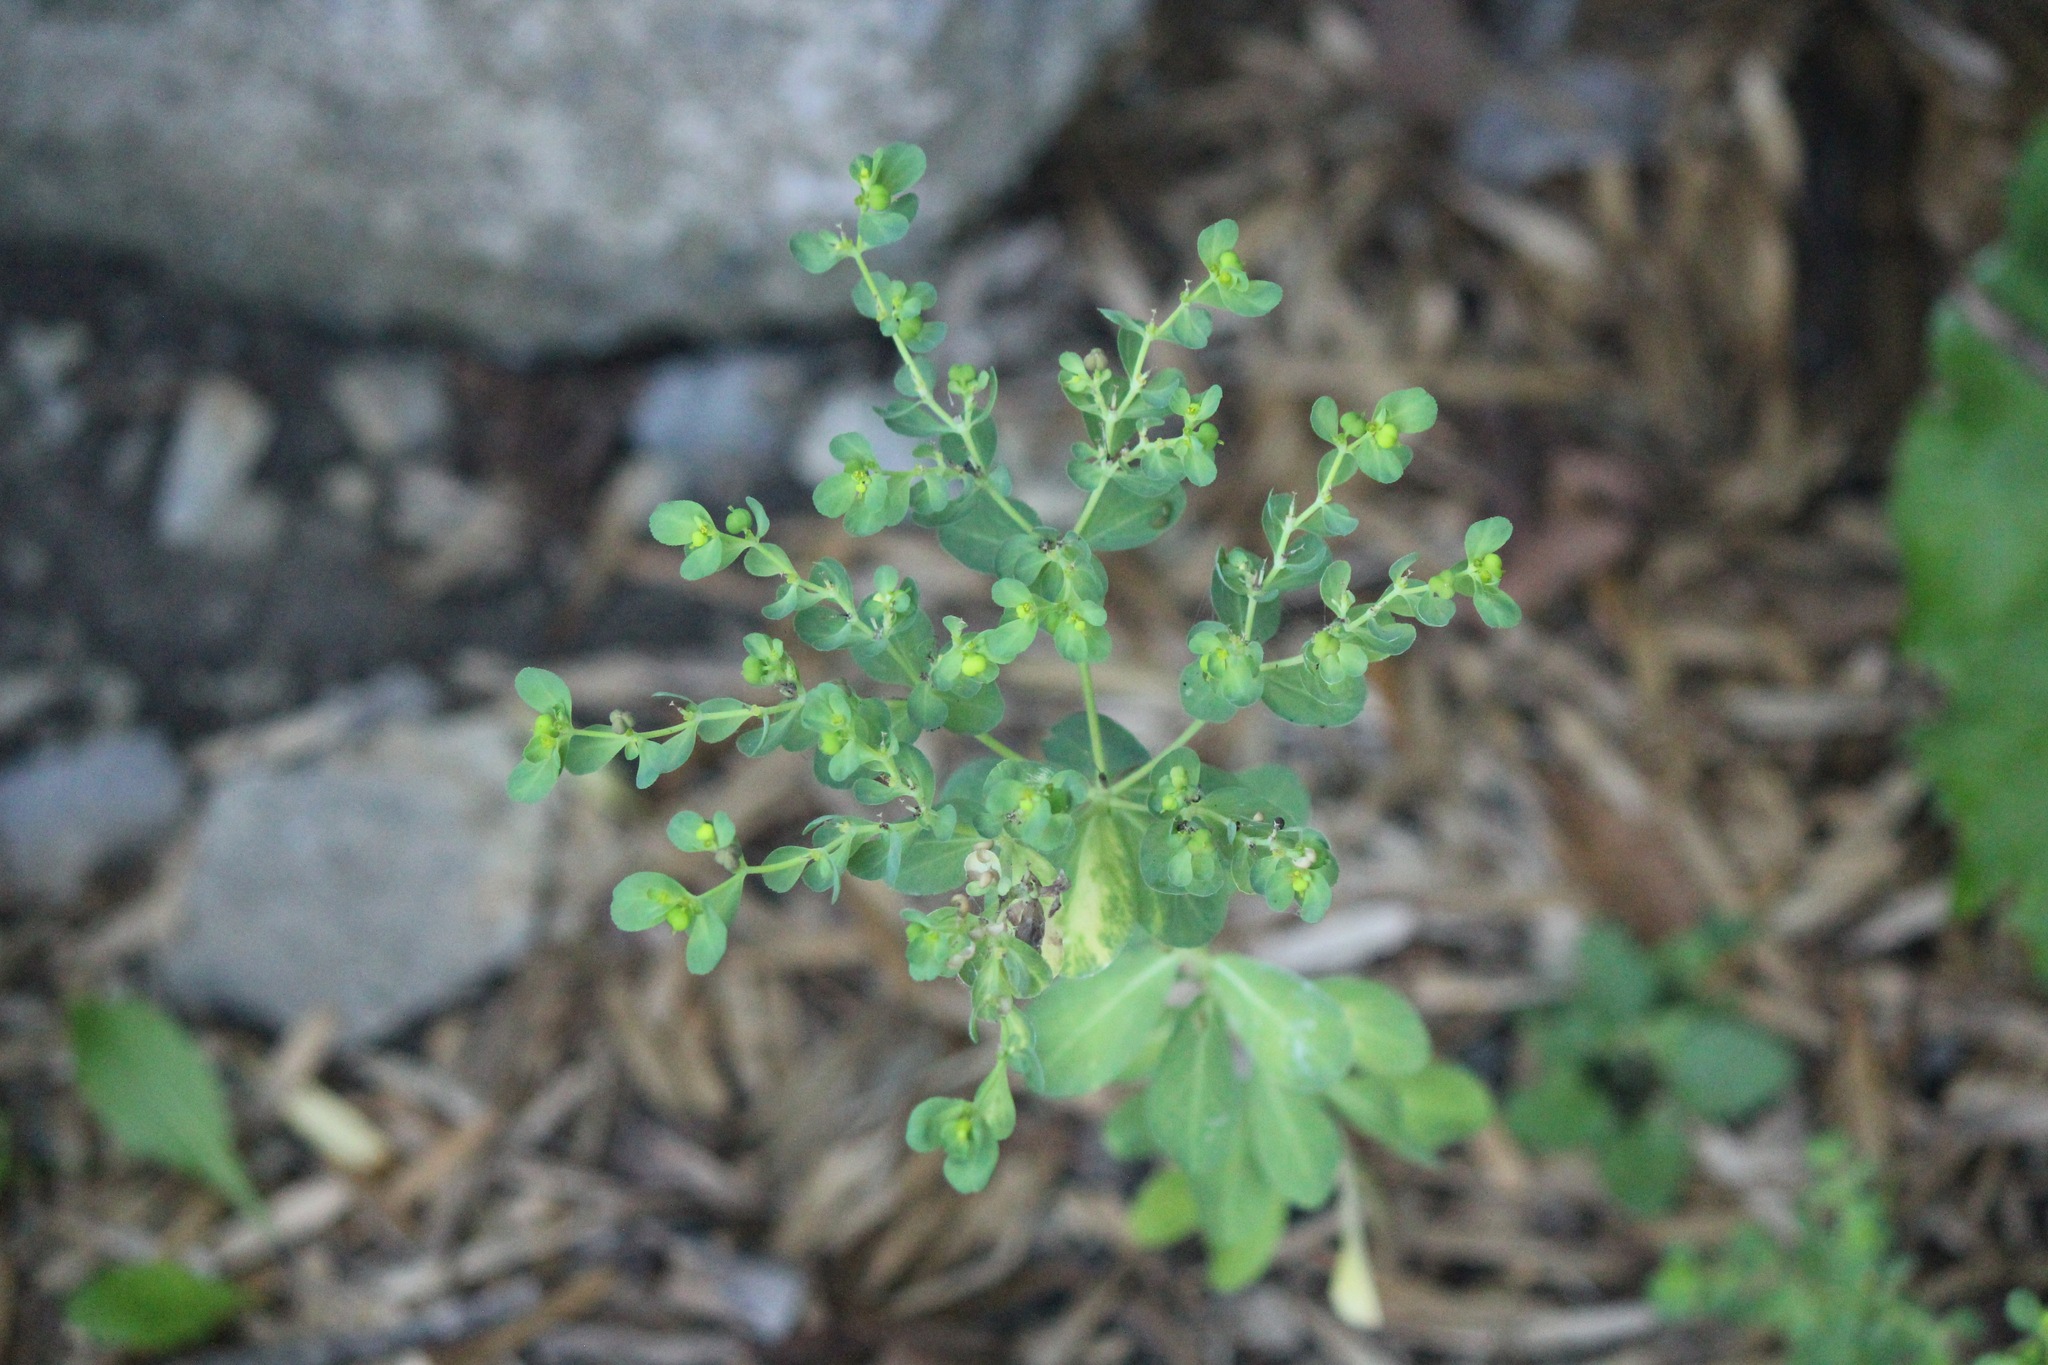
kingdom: Plantae
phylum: Tracheophyta
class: Magnoliopsida
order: Malpighiales
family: Euphorbiaceae
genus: Euphorbia
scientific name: Euphorbia helioscopia
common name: Sun spurge
